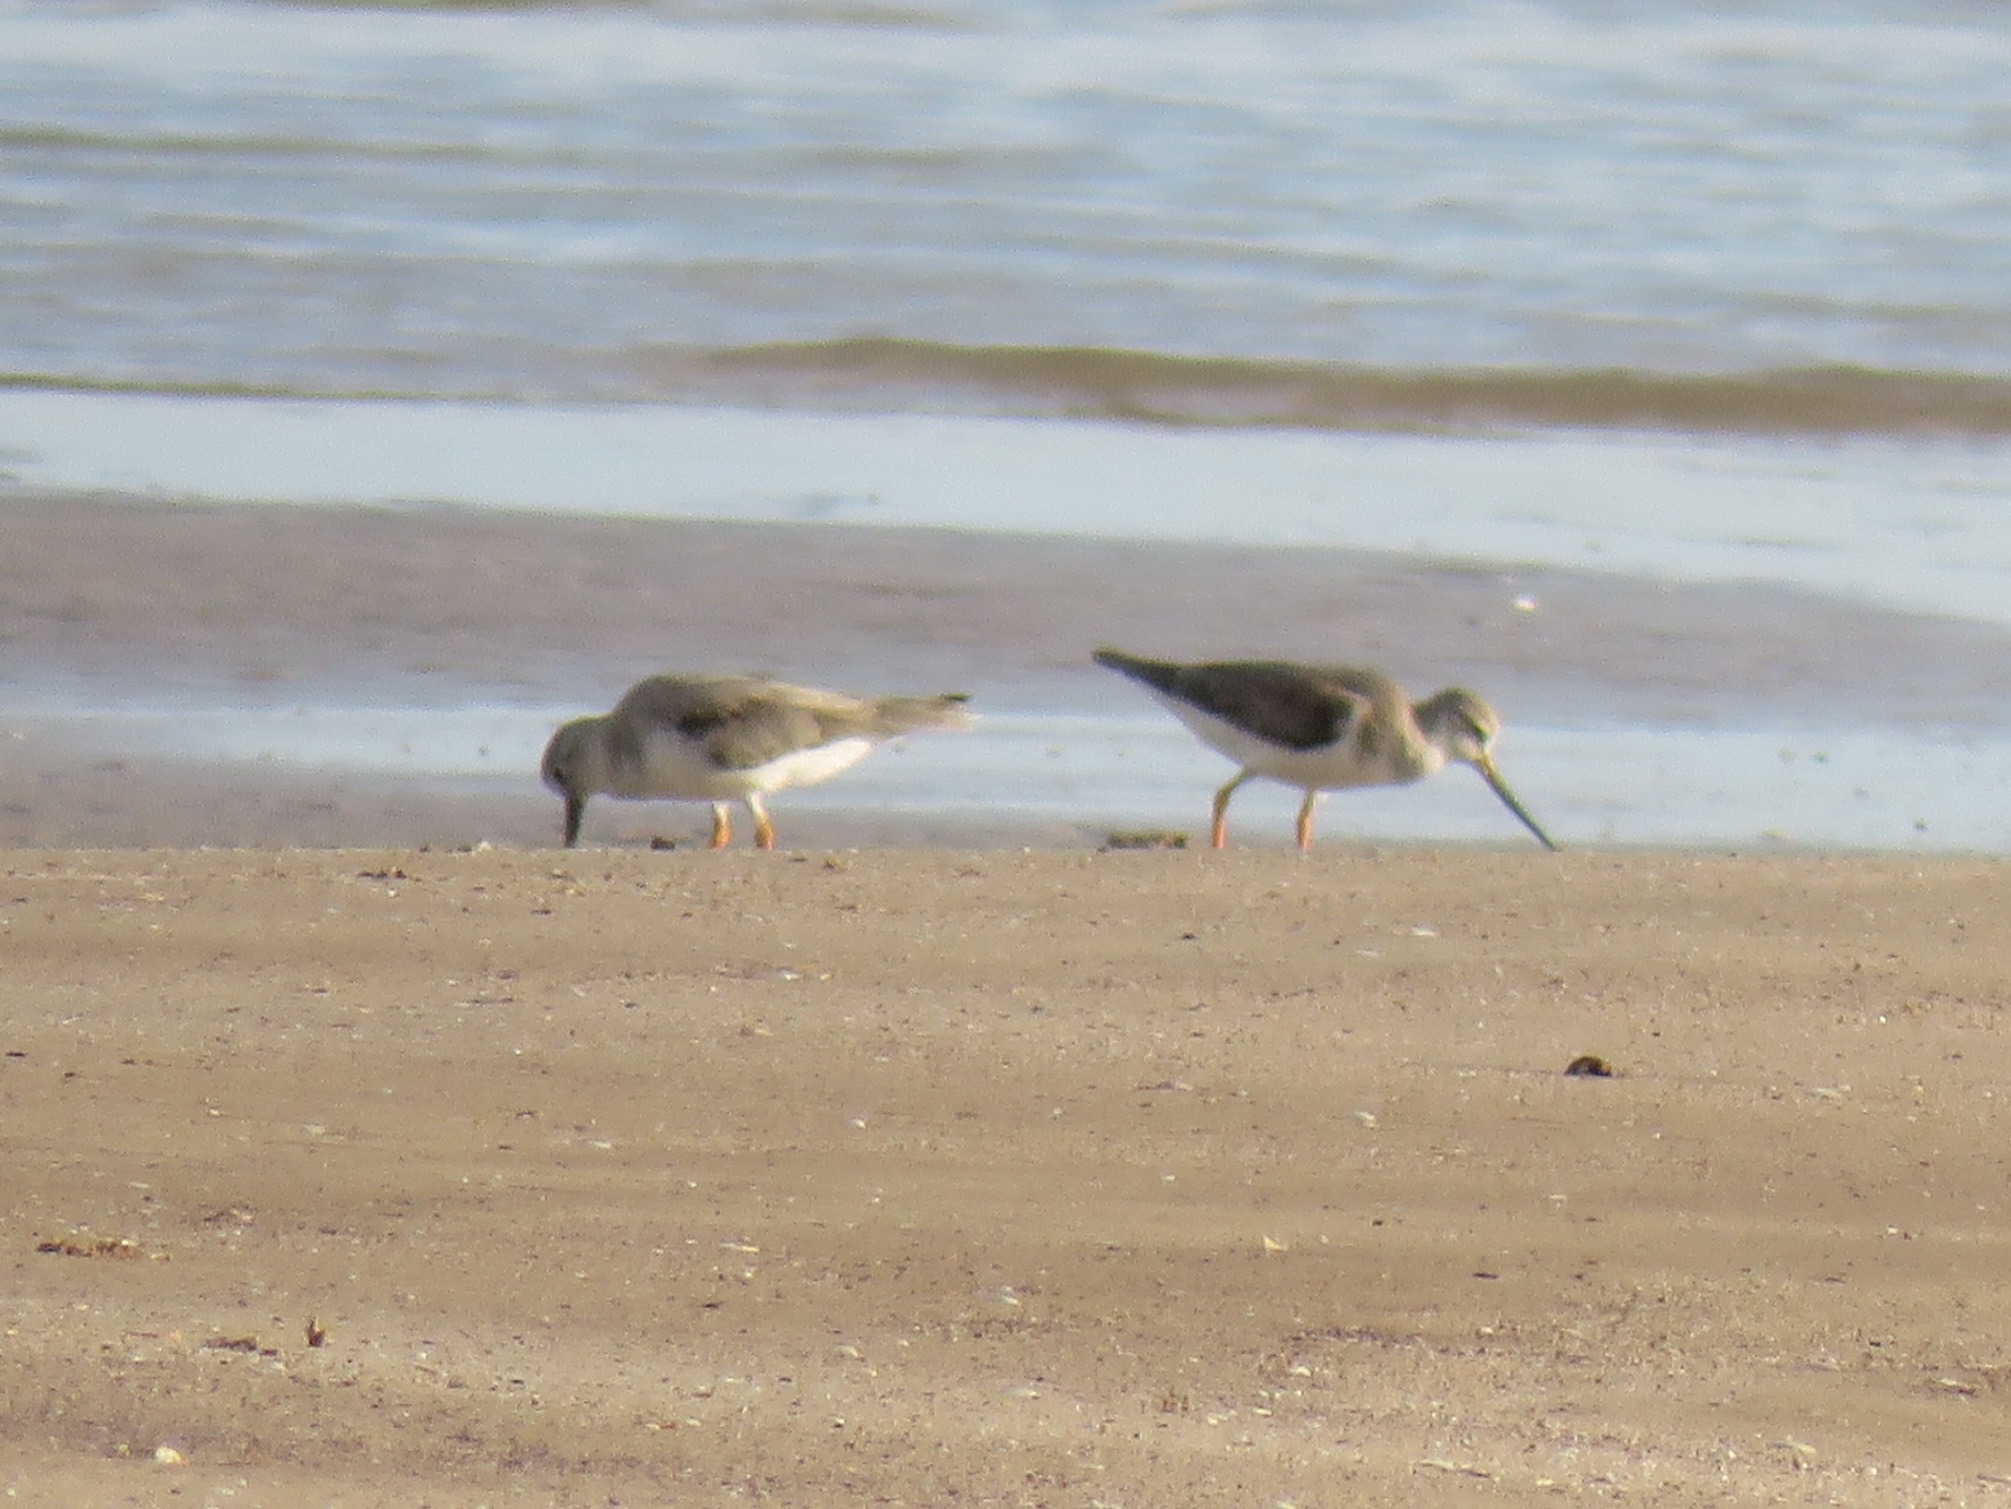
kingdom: Animalia
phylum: Chordata
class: Aves
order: Charadriiformes
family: Scolopacidae
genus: Xenus
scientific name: Xenus cinereus
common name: Terek sandpiper
